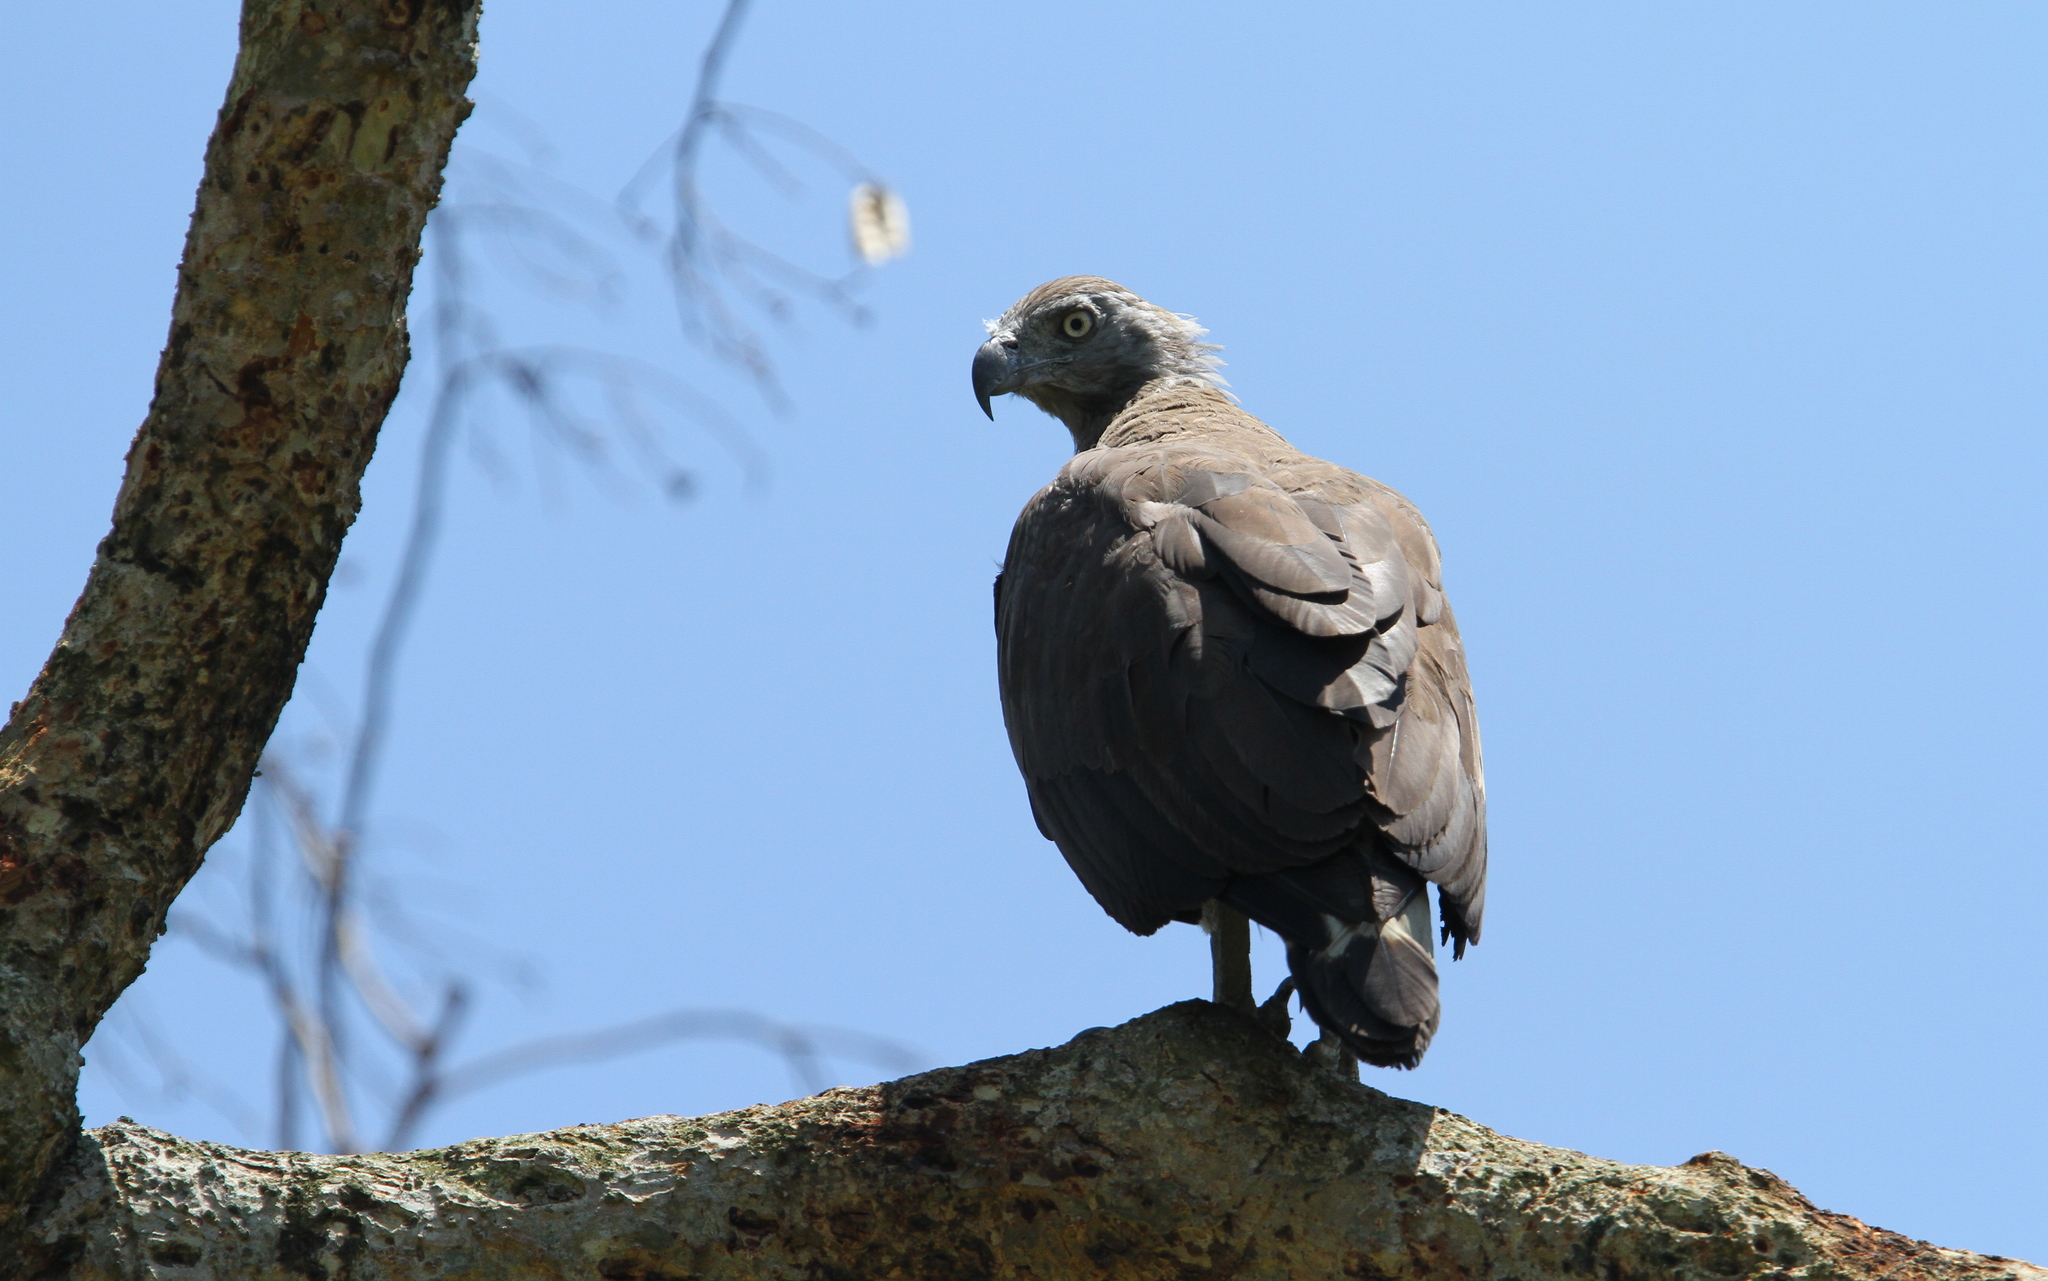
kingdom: Animalia
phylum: Chordata
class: Aves
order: Accipitriformes
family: Accipitridae
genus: Icthyophaga
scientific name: Icthyophaga ichthyaetus
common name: Grey-headed fish eagle
